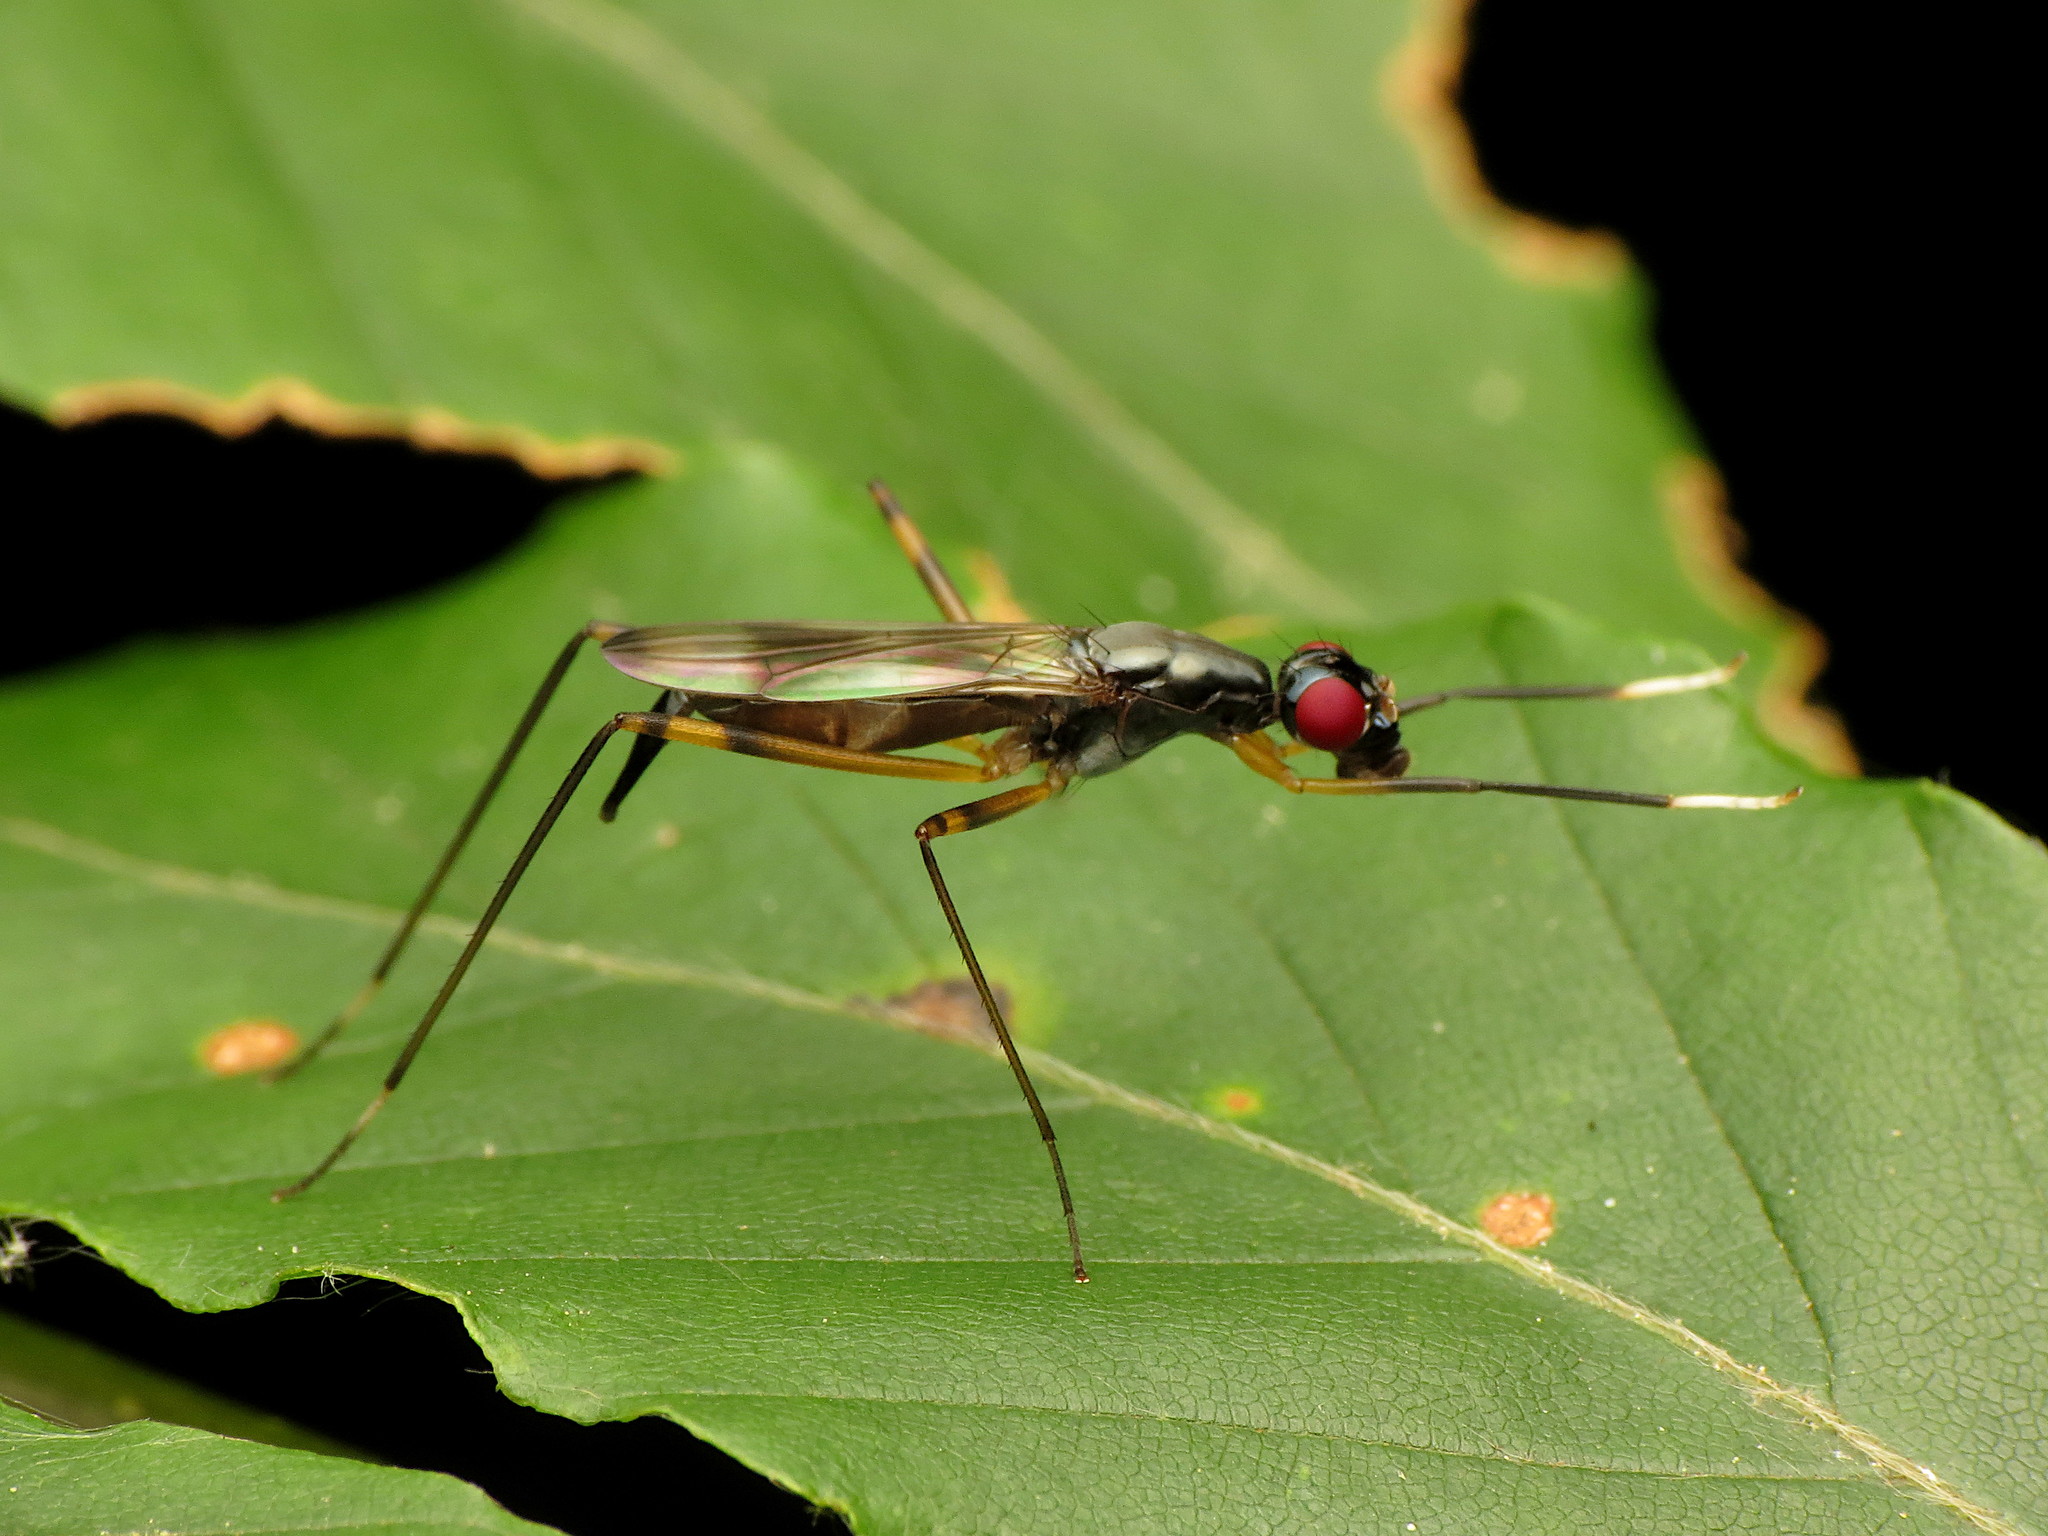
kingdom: Animalia
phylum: Arthropoda
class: Insecta
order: Diptera
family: Micropezidae
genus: Rainieria
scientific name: Rainieria antennaepes
